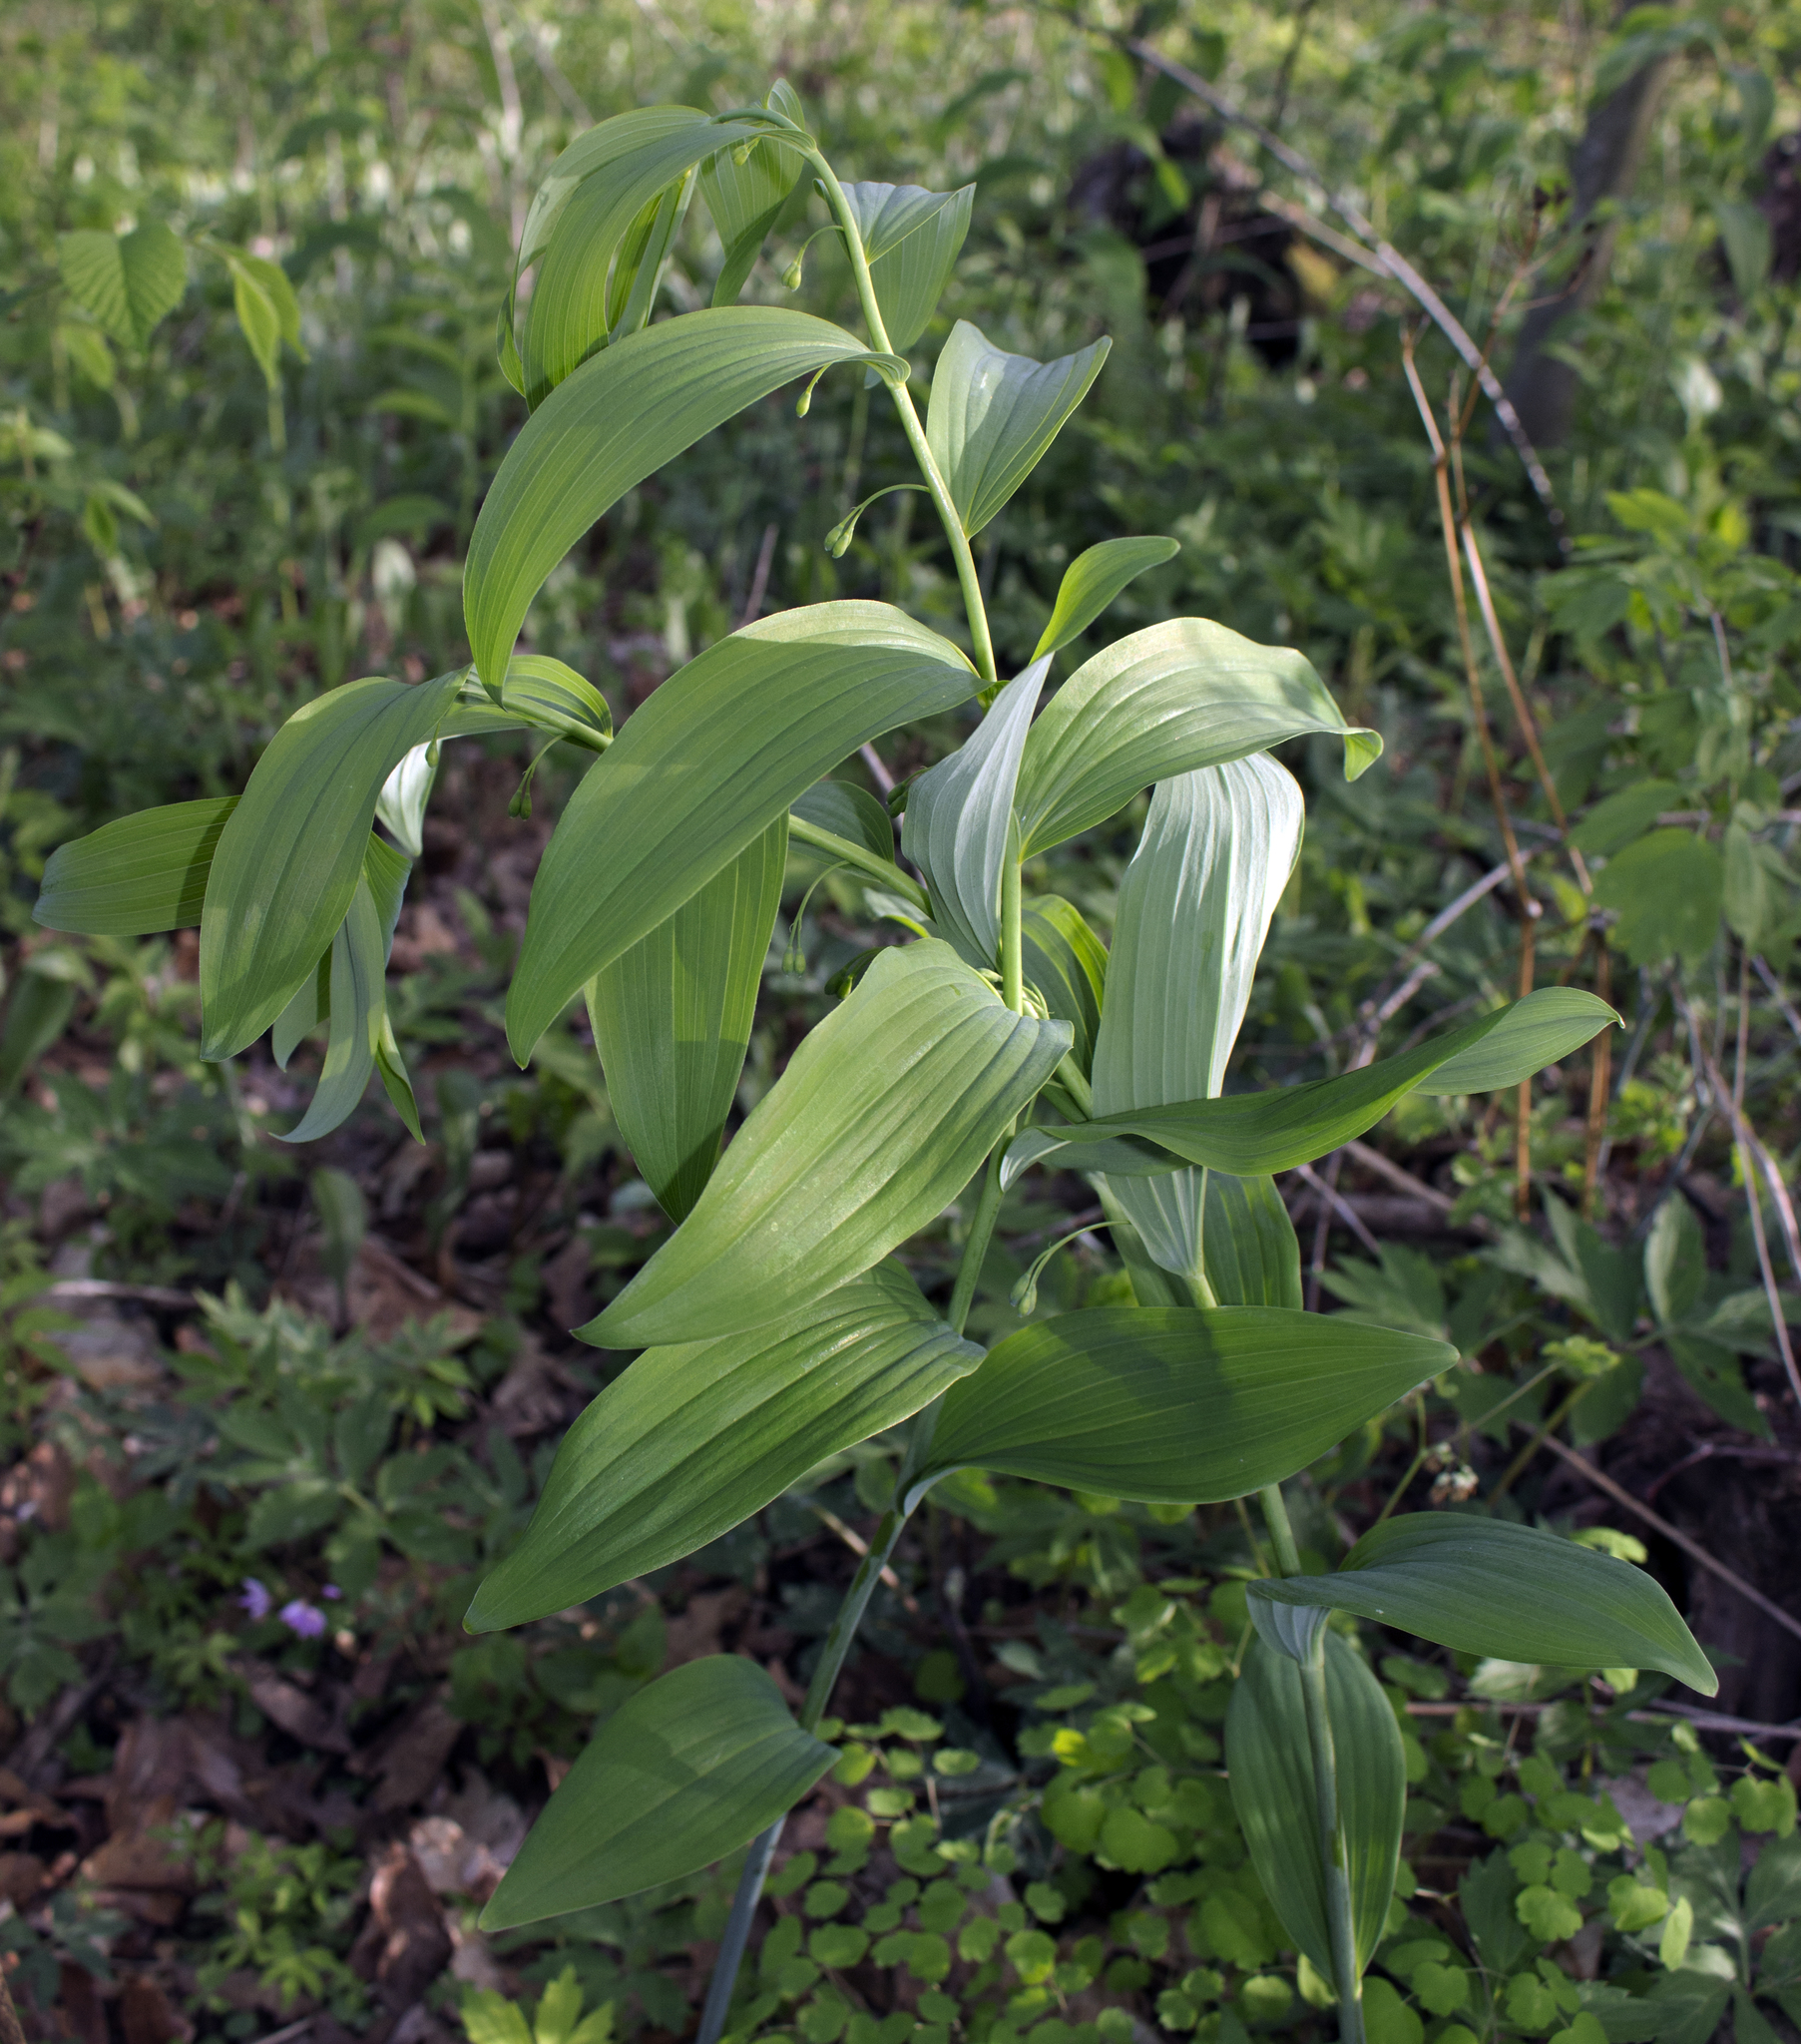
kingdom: Plantae
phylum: Tracheophyta
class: Liliopsida
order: Asparagales
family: Asparagaceae
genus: Polygonatum
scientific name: Polygonatum biflorum
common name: American solomon's-seal
